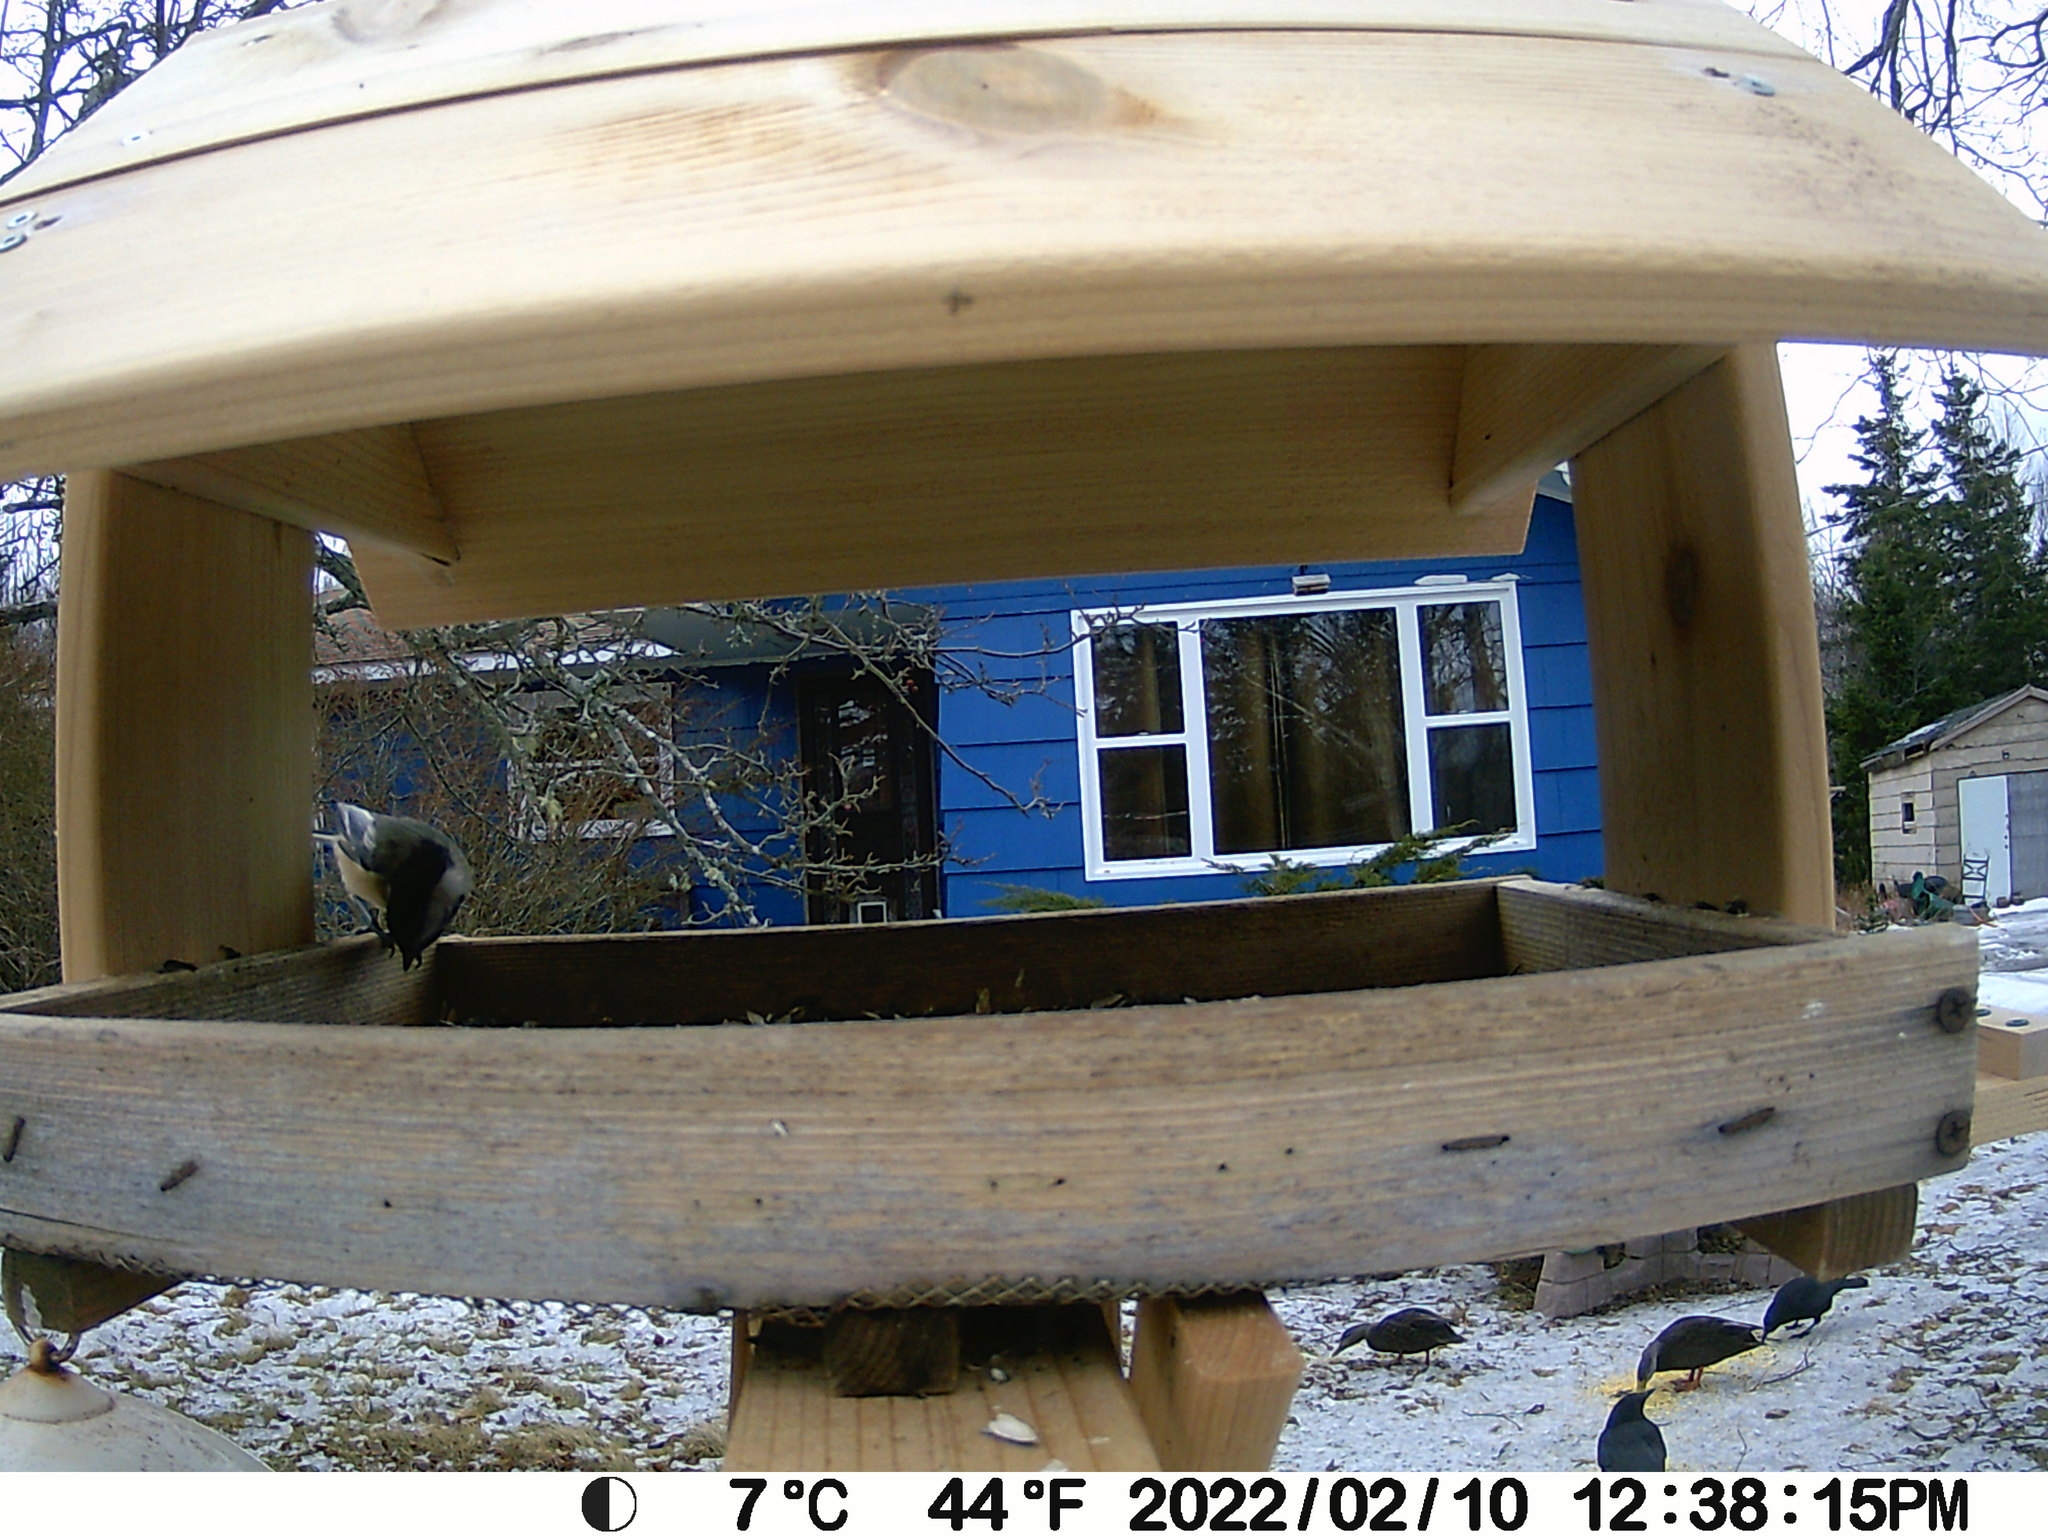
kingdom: Animalia
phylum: Chordata
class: Aves
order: Anseriformes
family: Anatidae
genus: Anas
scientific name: Anas rubripes
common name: American black duck
